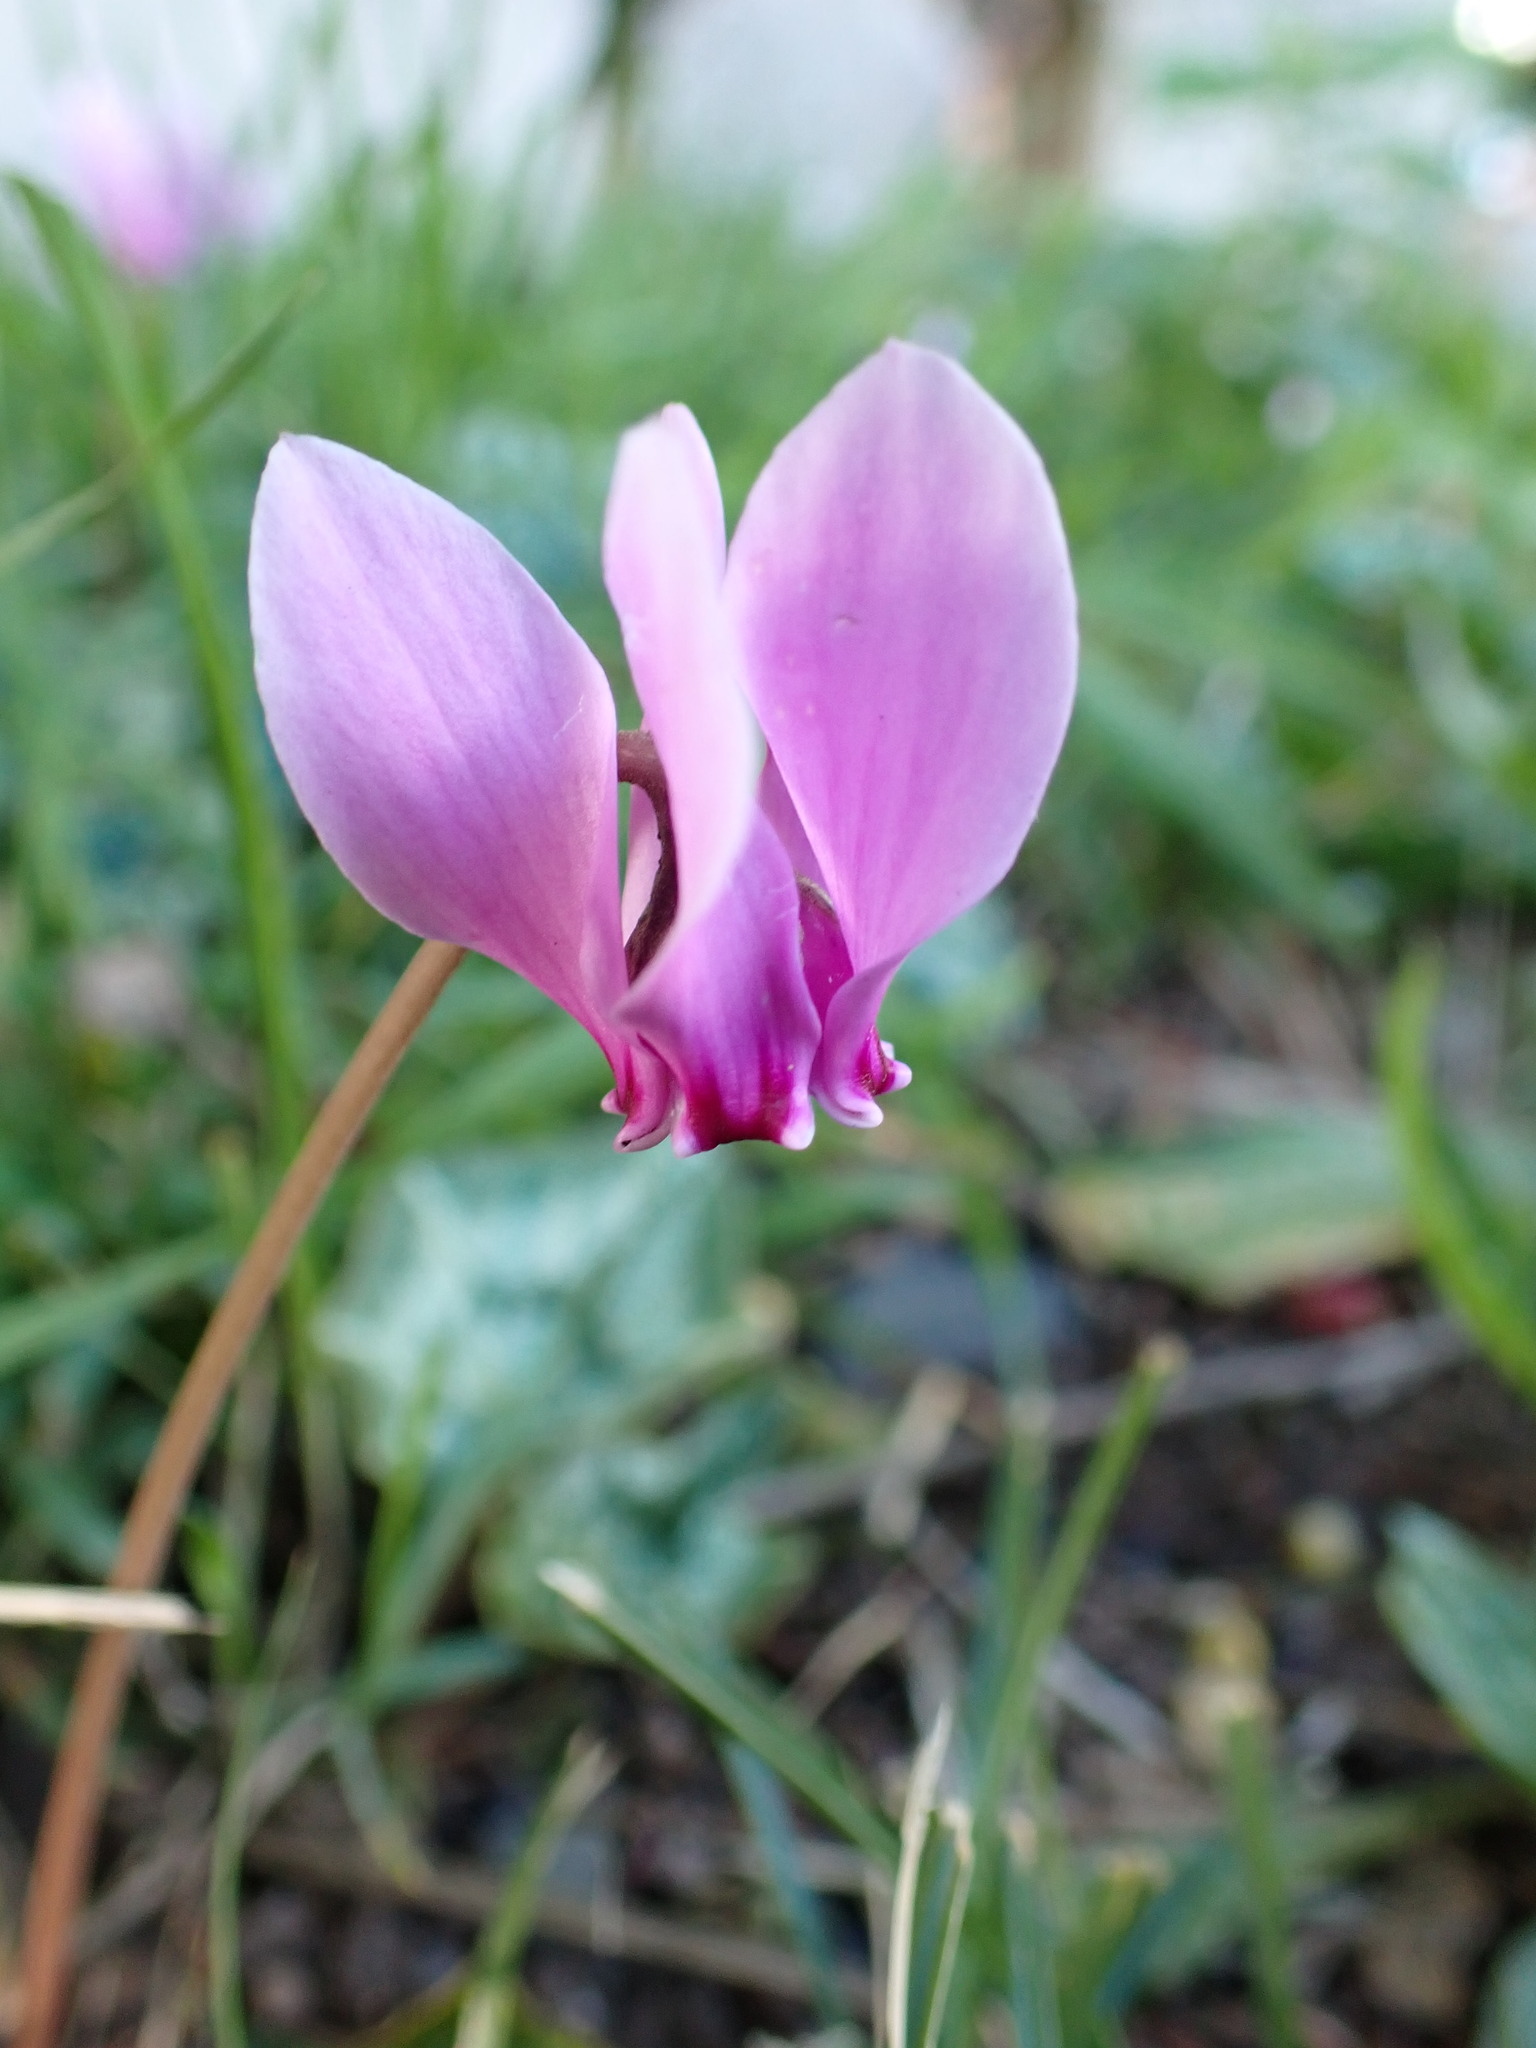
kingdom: Plantae
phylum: Tracheophyta
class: Magnoliopsida
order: Ericales
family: Primulaceae
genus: Cyclamen
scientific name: Cyclamen hederifolium
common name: Sowbread
